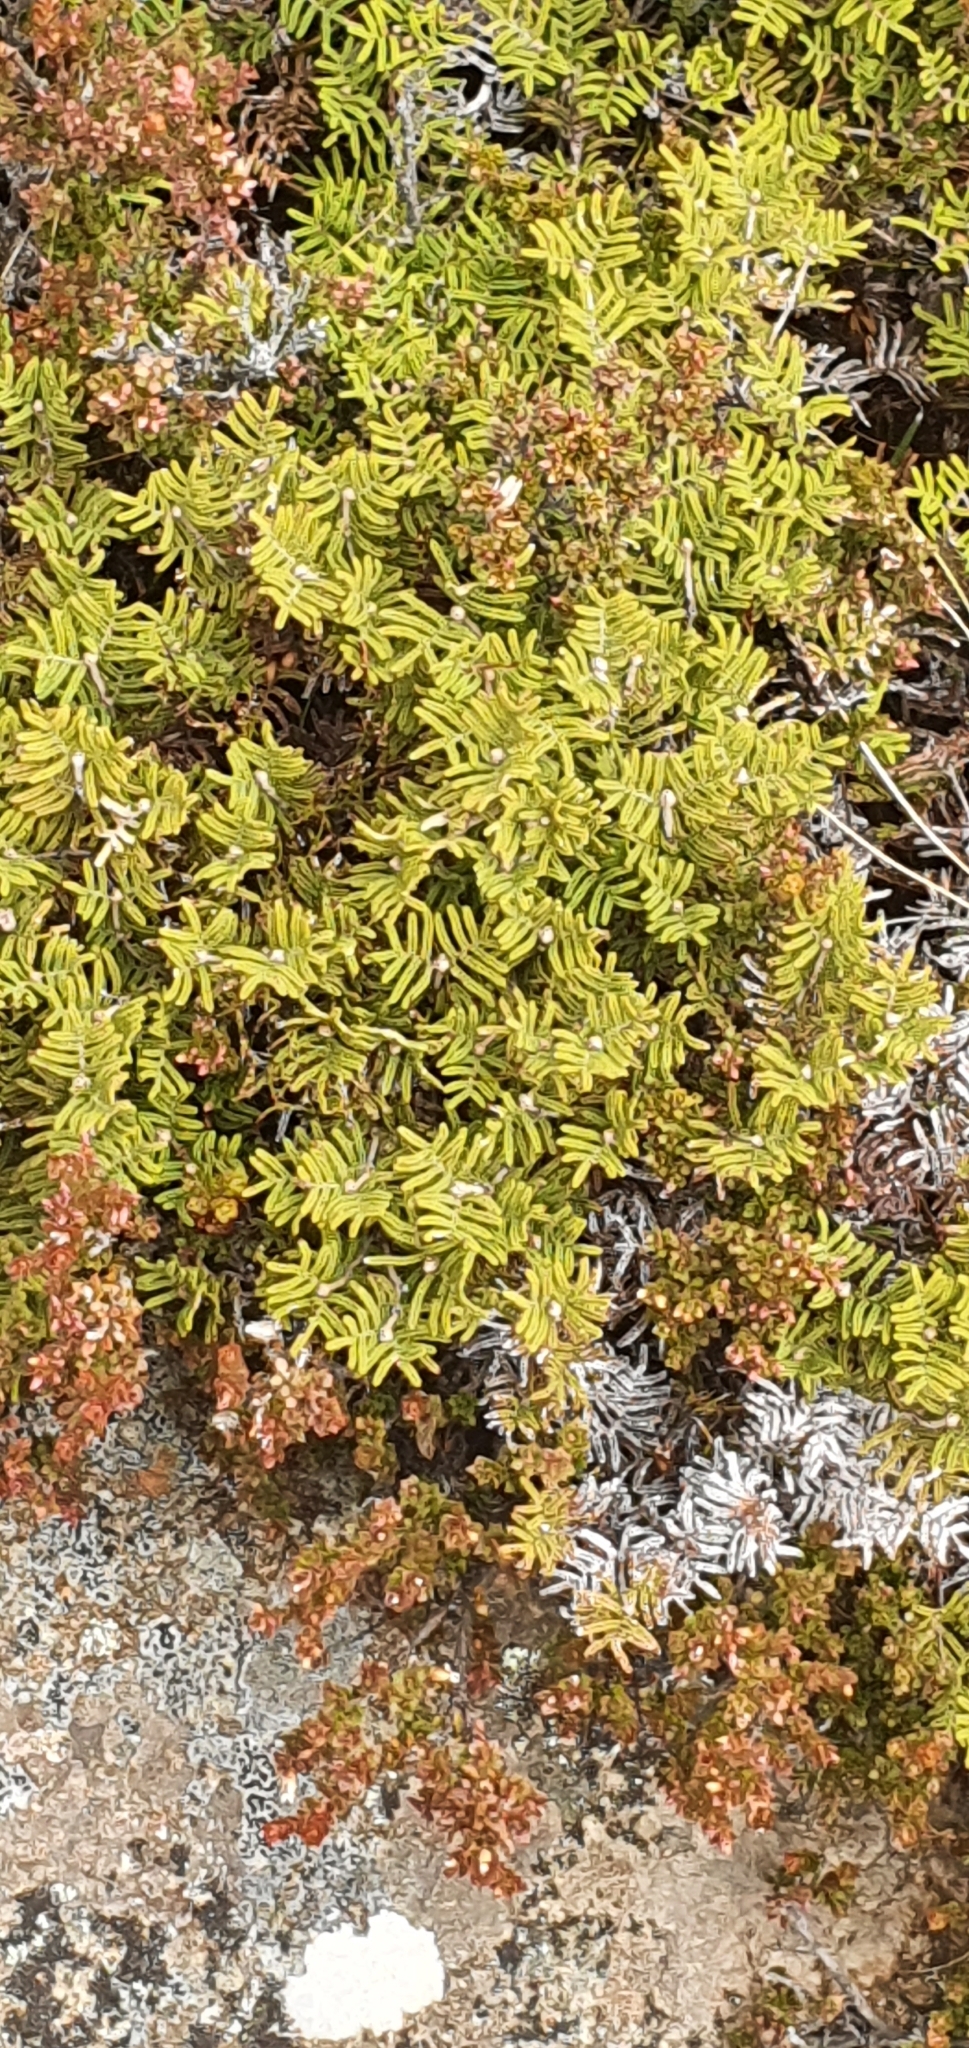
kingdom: Plantae
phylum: Tracheophyta
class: Polypodiopsida
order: Gleicheniales
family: Gleicheniaceae
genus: Gleichenia
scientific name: Gleichenia alpina
